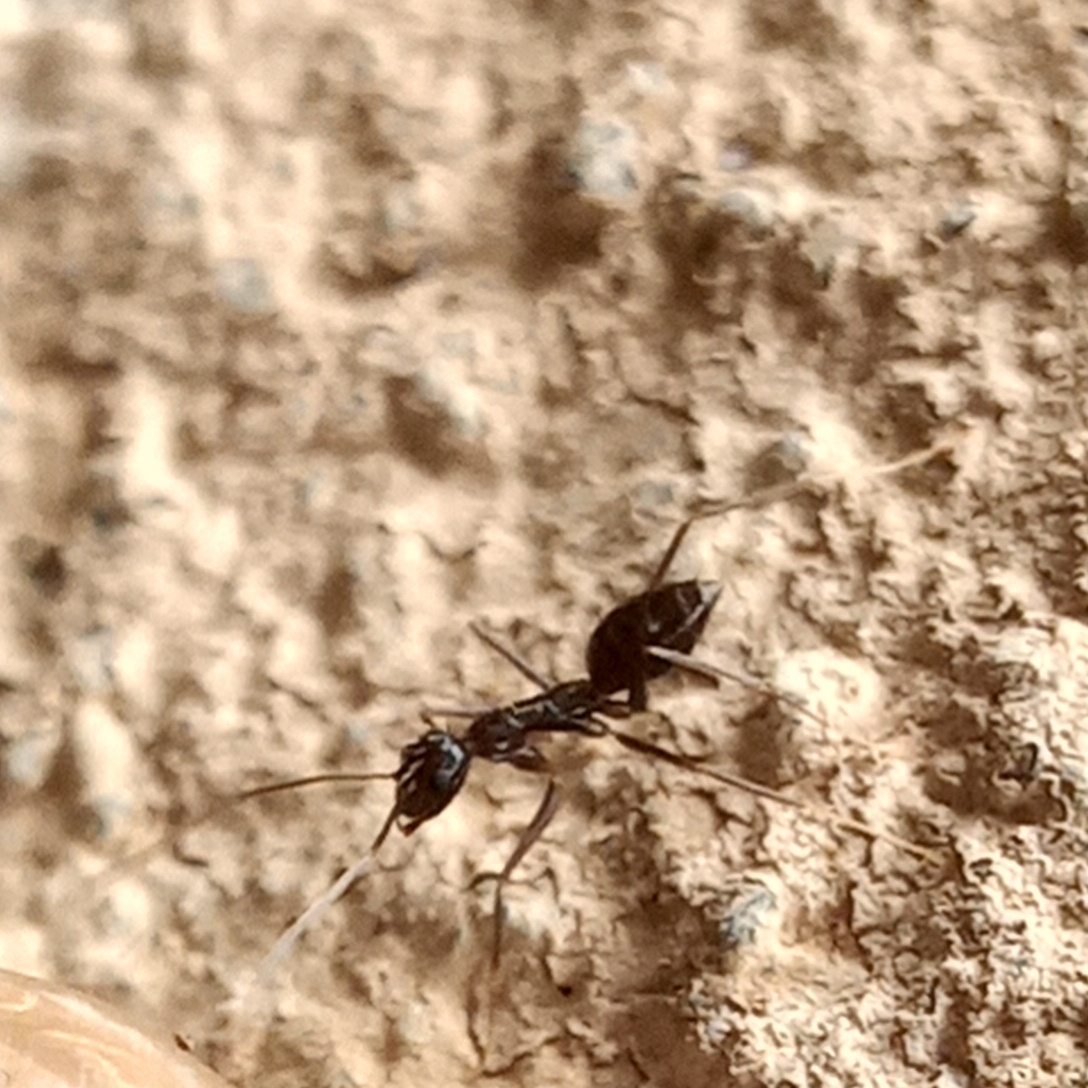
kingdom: Animalia
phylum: Arthropoda
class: Insecta
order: Hymenoptera
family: Formicidae
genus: Paratrechina
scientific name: Paratrechina longicornis
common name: Longhorned crazy ant
